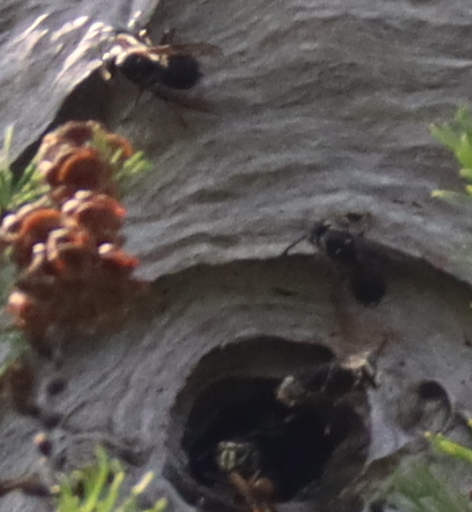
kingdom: Animalia
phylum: Arthropoda
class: Insecta
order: Hymenoptera
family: Vespidae
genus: Dolichovespula
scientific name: Dolichovespula maculata
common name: Bald-faced hornet
